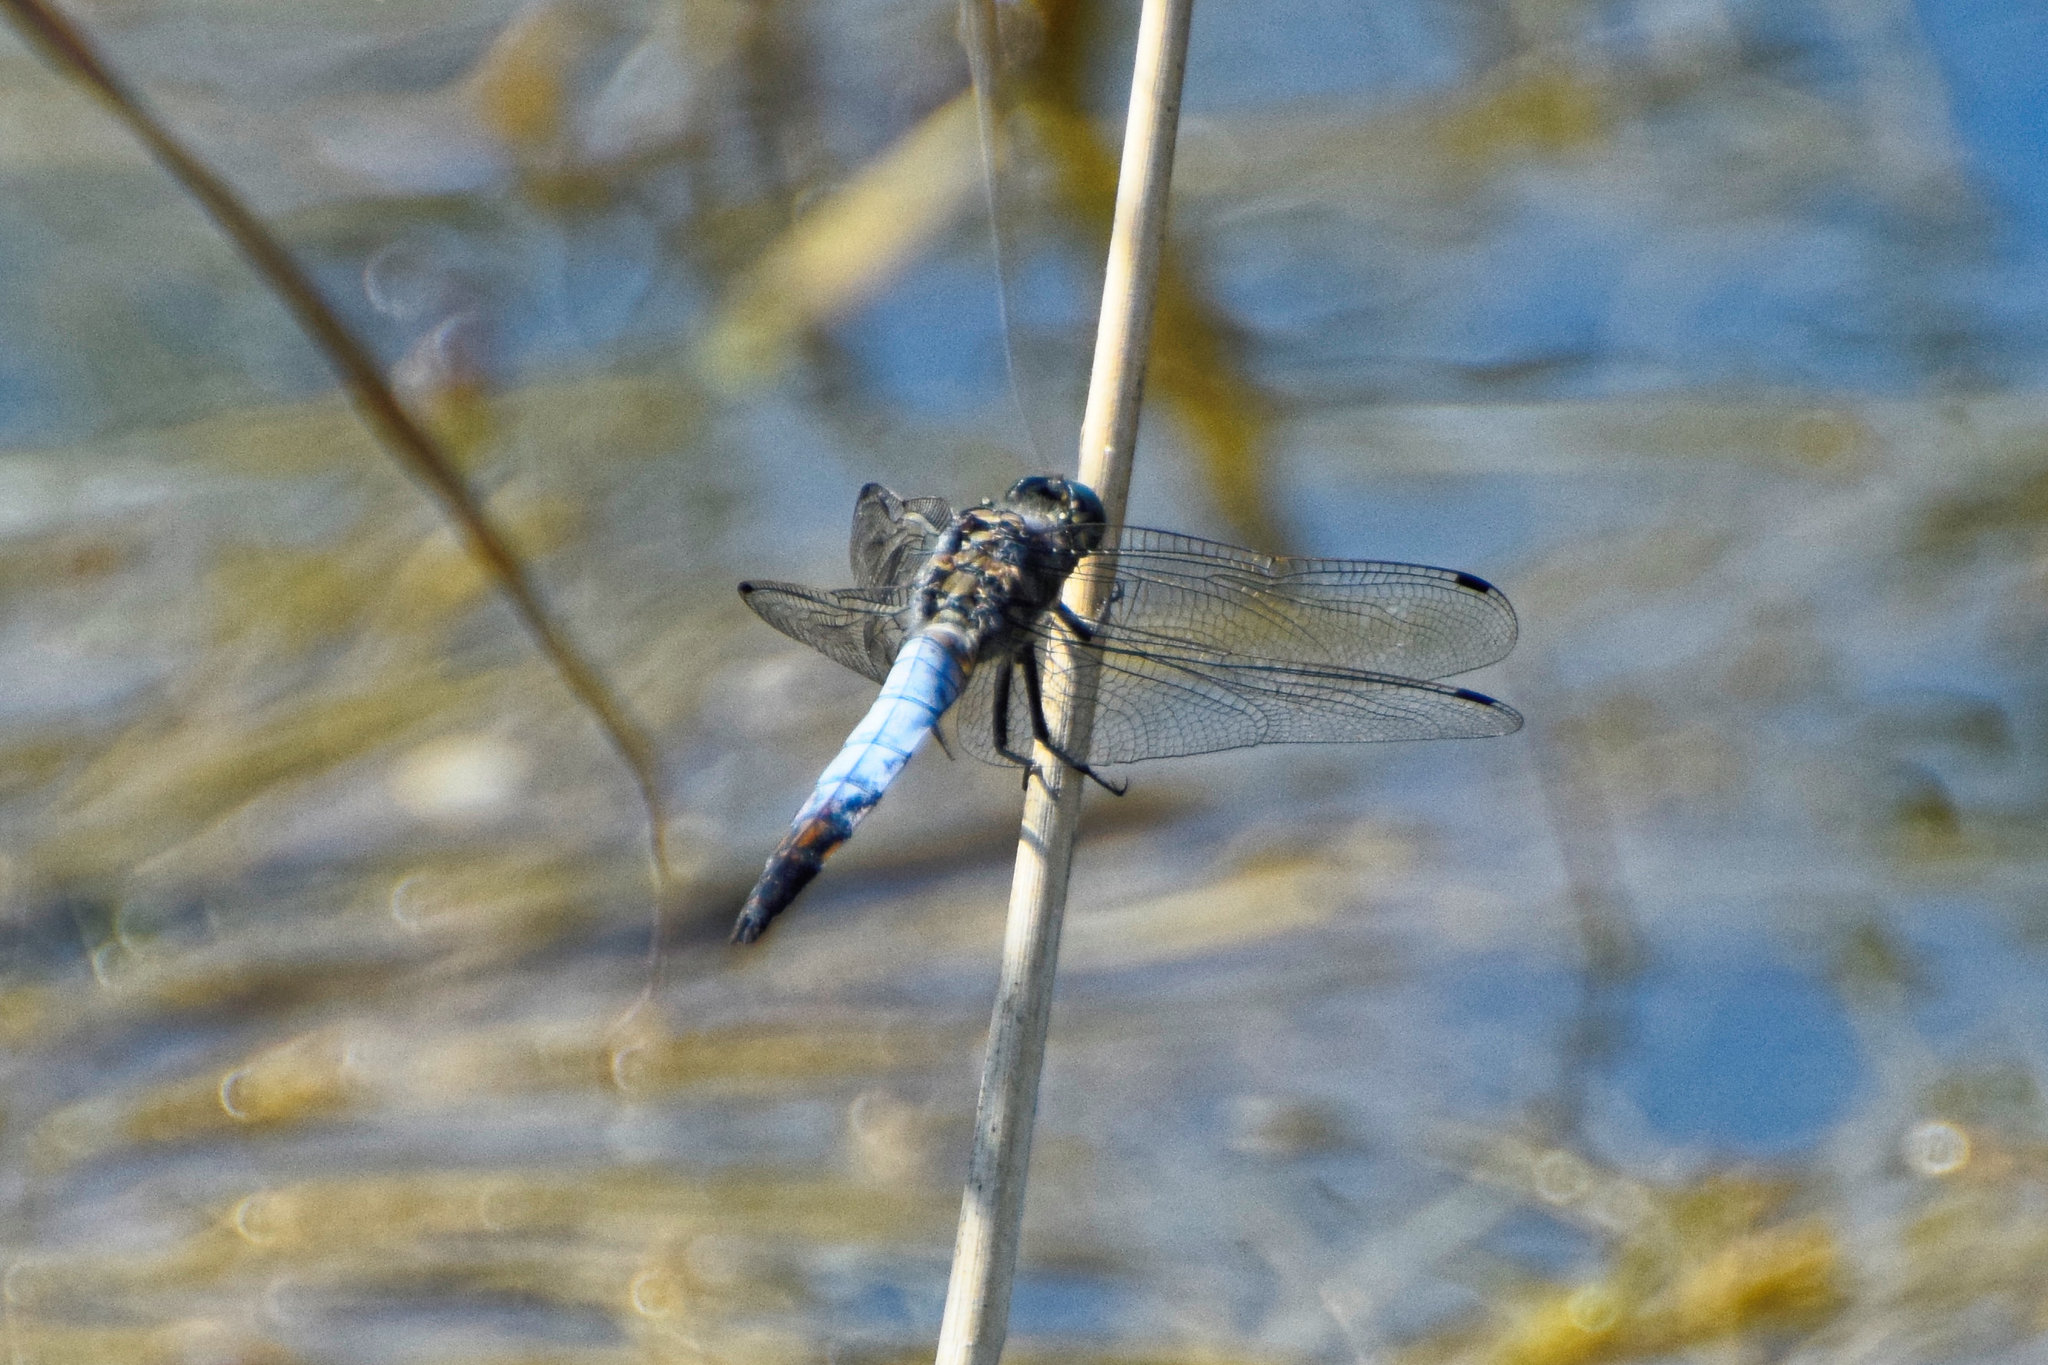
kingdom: Animalia
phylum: Arthropoda
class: Insecta
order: Odonata
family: Libellulidae
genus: Orthetrum
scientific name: Orthetrum cancellatum
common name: Black-tailed skimmer
